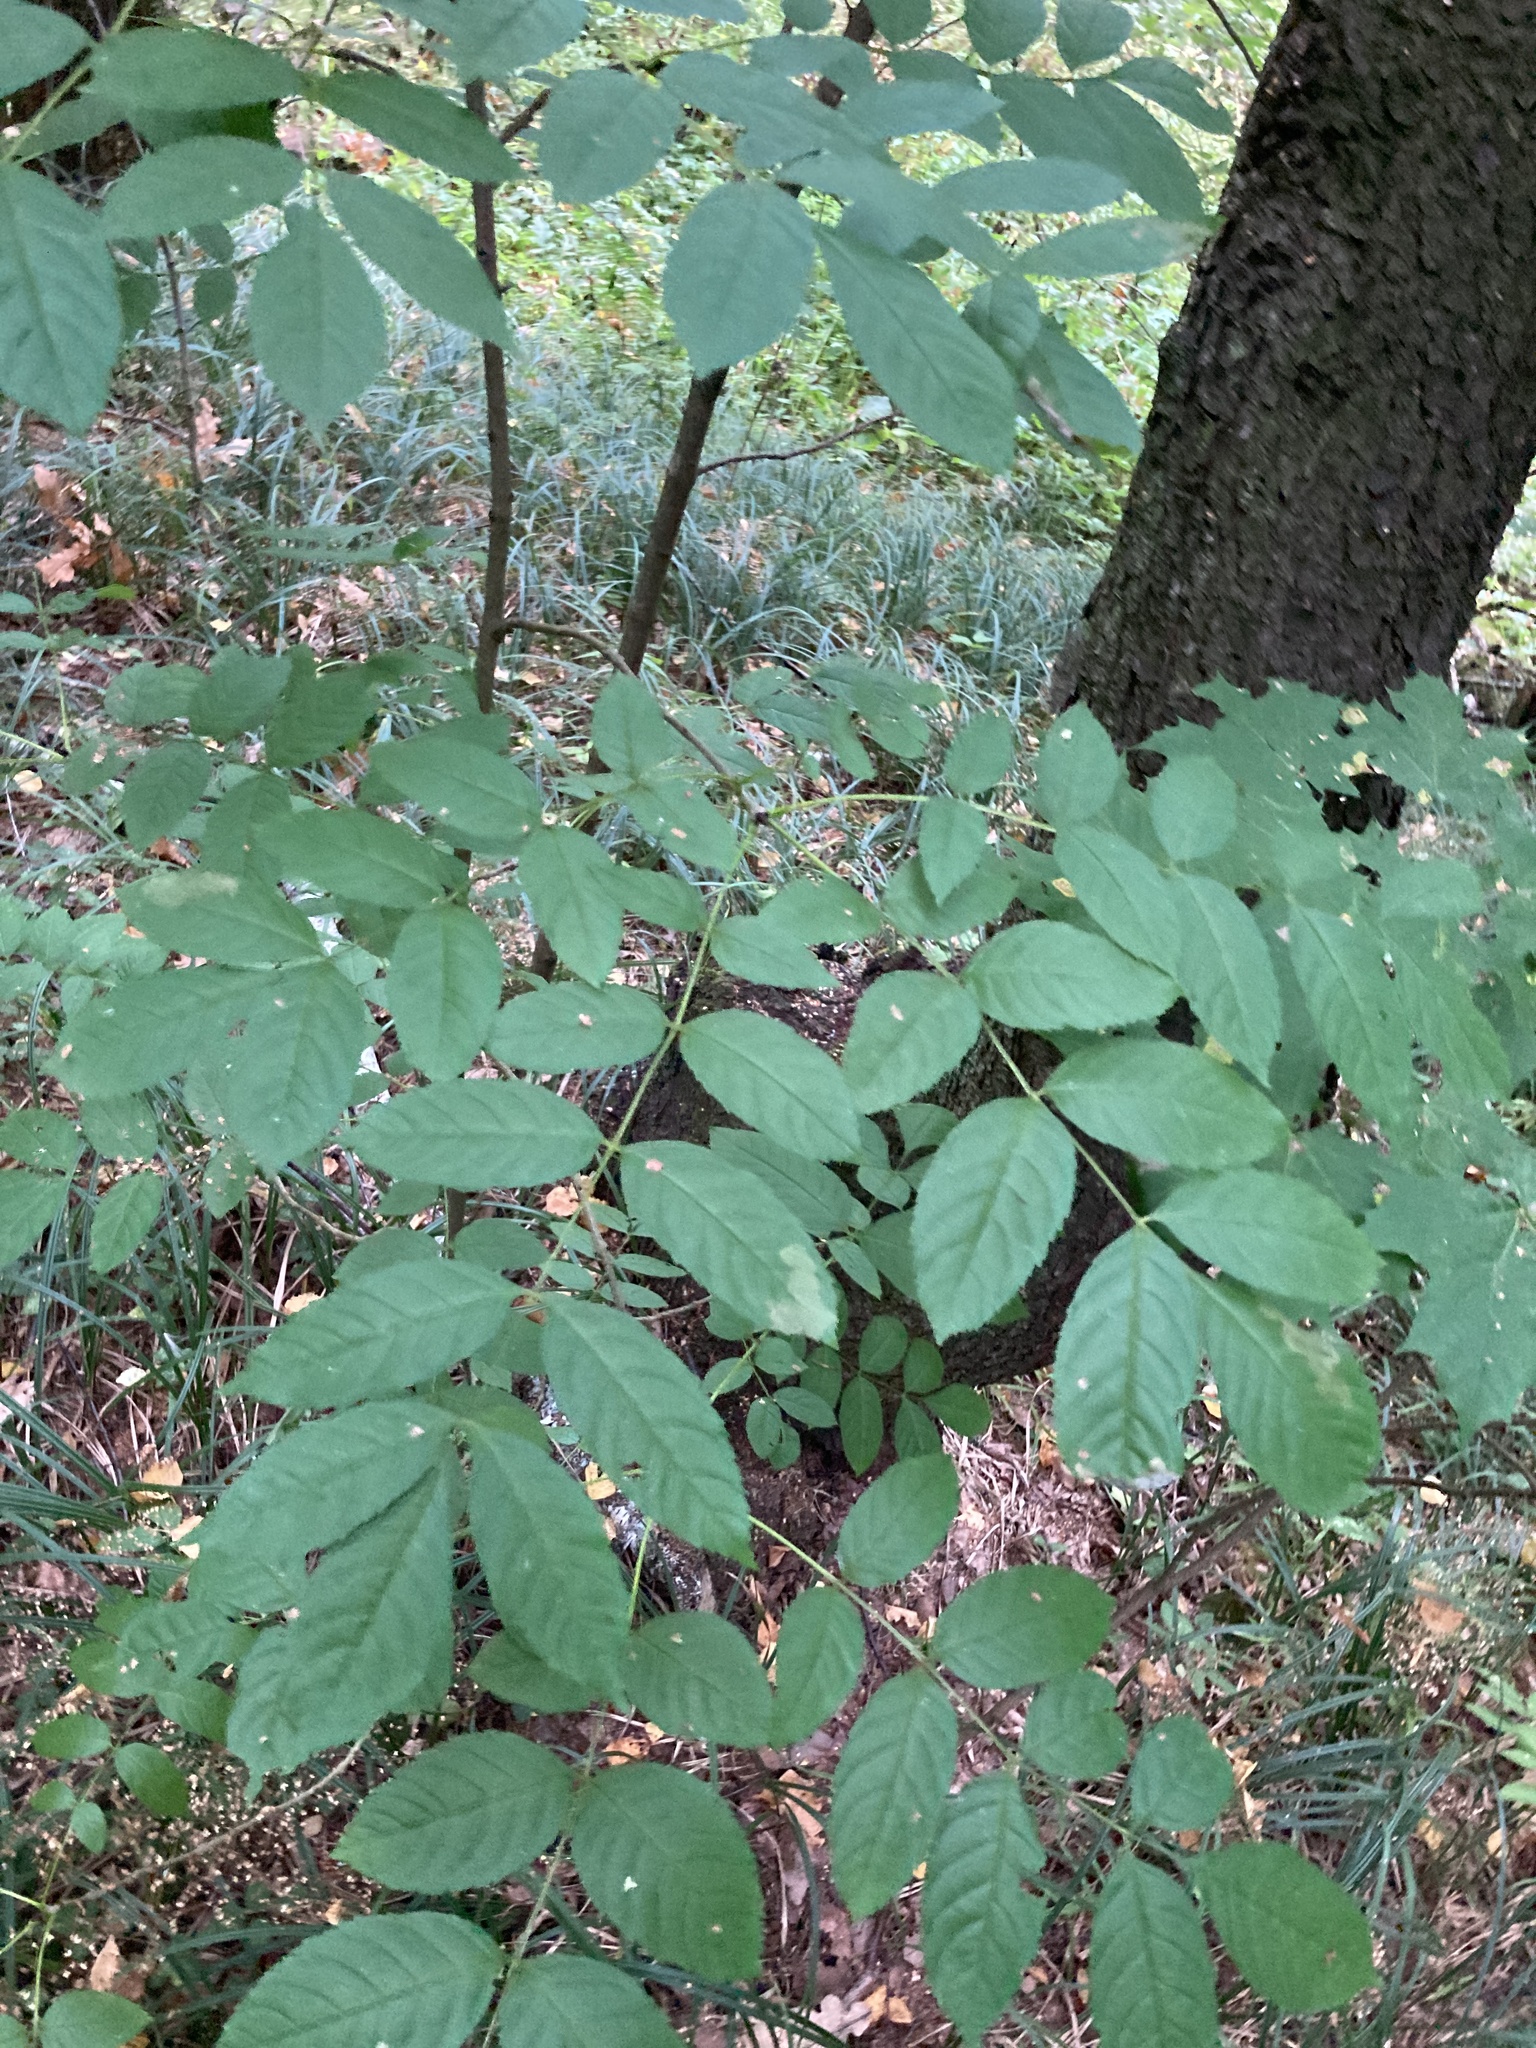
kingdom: Plantae
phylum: Tracheophyta
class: Magnoliopsida
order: Lamiales
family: Oleaceae
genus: Fraxinus
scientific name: Fraxinus excelsior
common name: European ash
